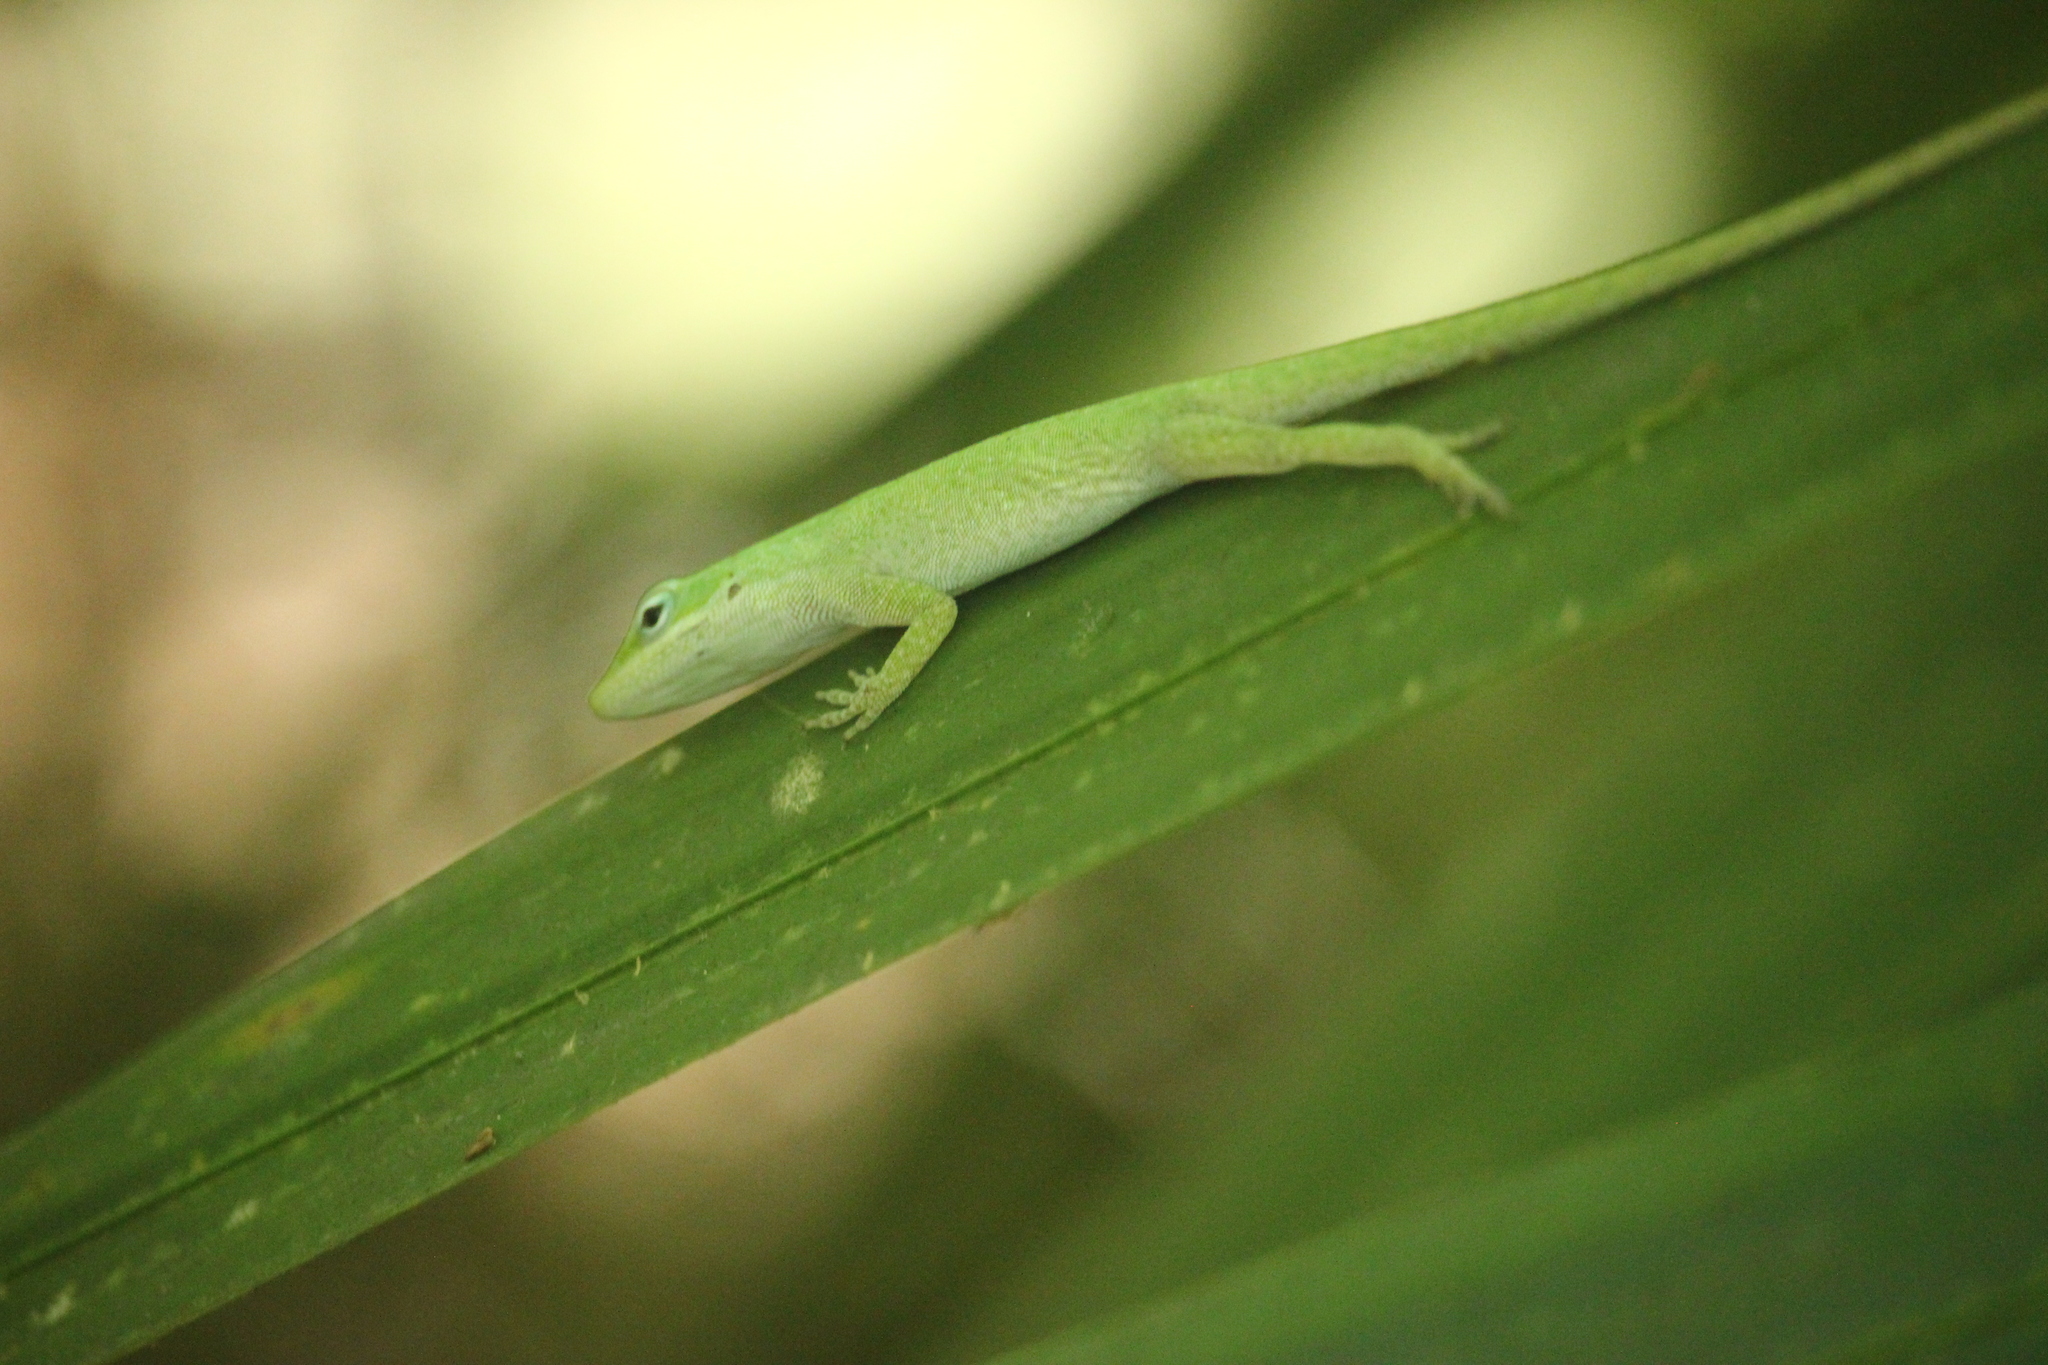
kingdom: Animalia
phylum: Chordata
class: Squamata
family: Dactyloidae
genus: Anolis
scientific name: Anolis carolinensis
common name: Green anole
